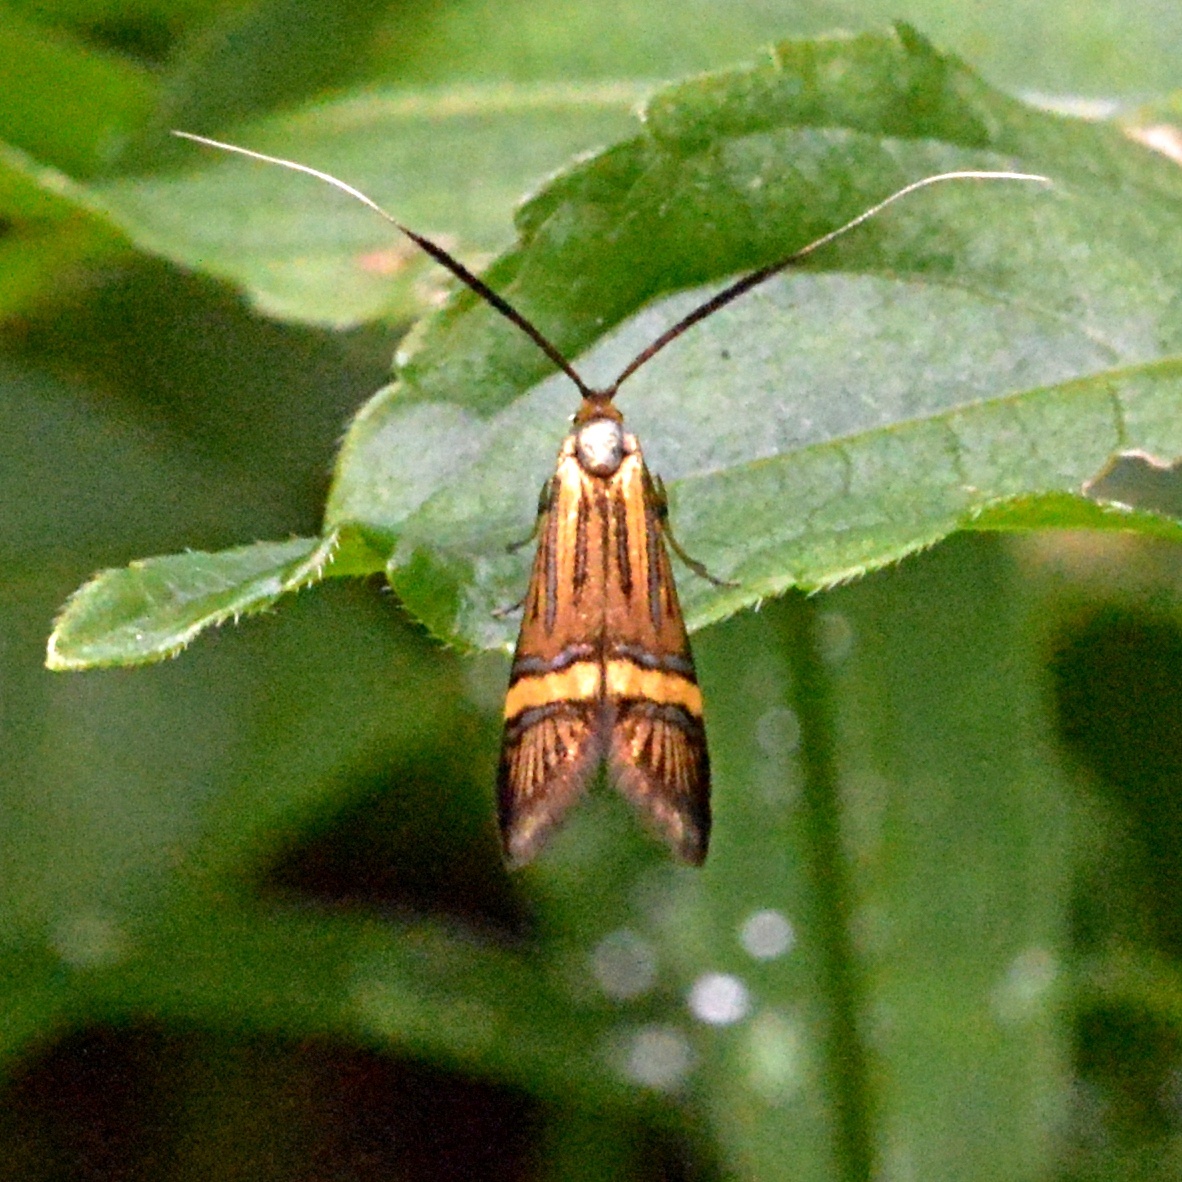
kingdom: Animalia
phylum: Arthropoda
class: Insecta
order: Lepidoptera
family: Adelidae
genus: Nemophora
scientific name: Nemophora degeerella
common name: Yellow-barred long-horn
